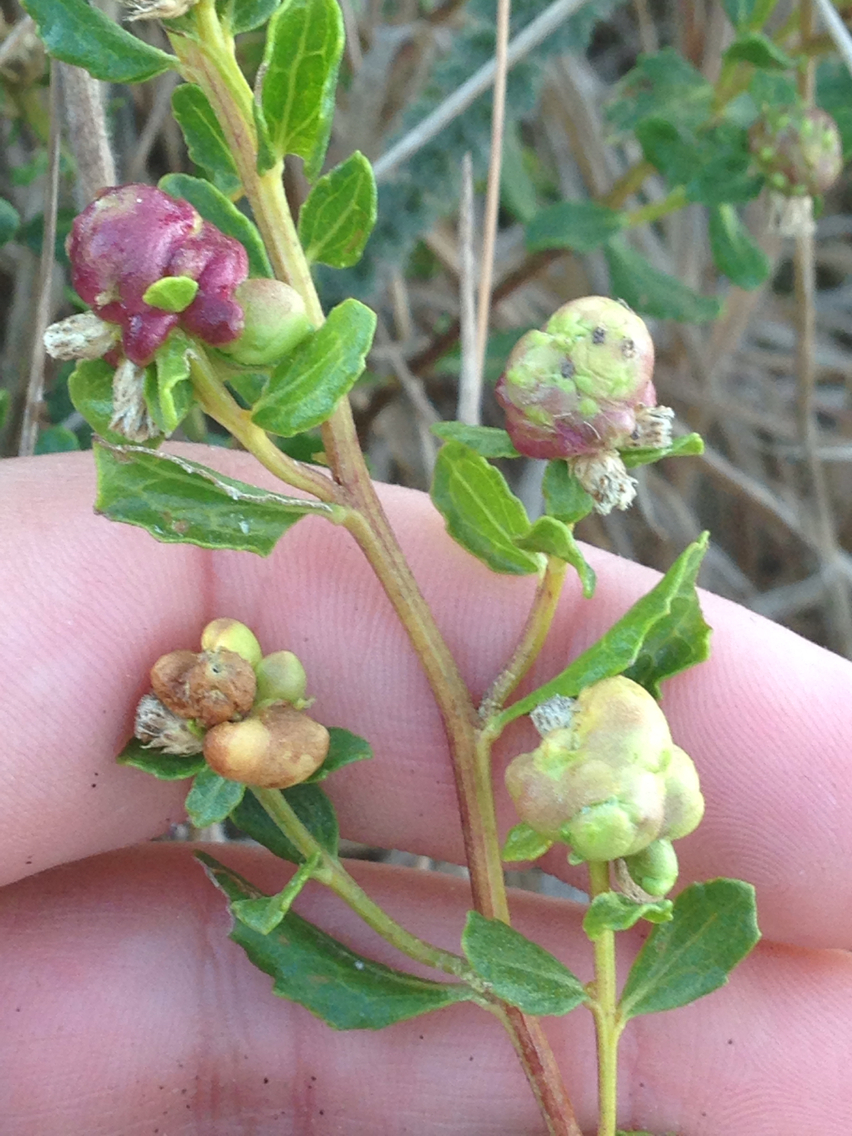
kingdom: Animalia
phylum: Arthropoda
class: Insecta
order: Diptera
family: Cecidomyiidae
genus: Rhopalomyia
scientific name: Rhopalomyia californica
